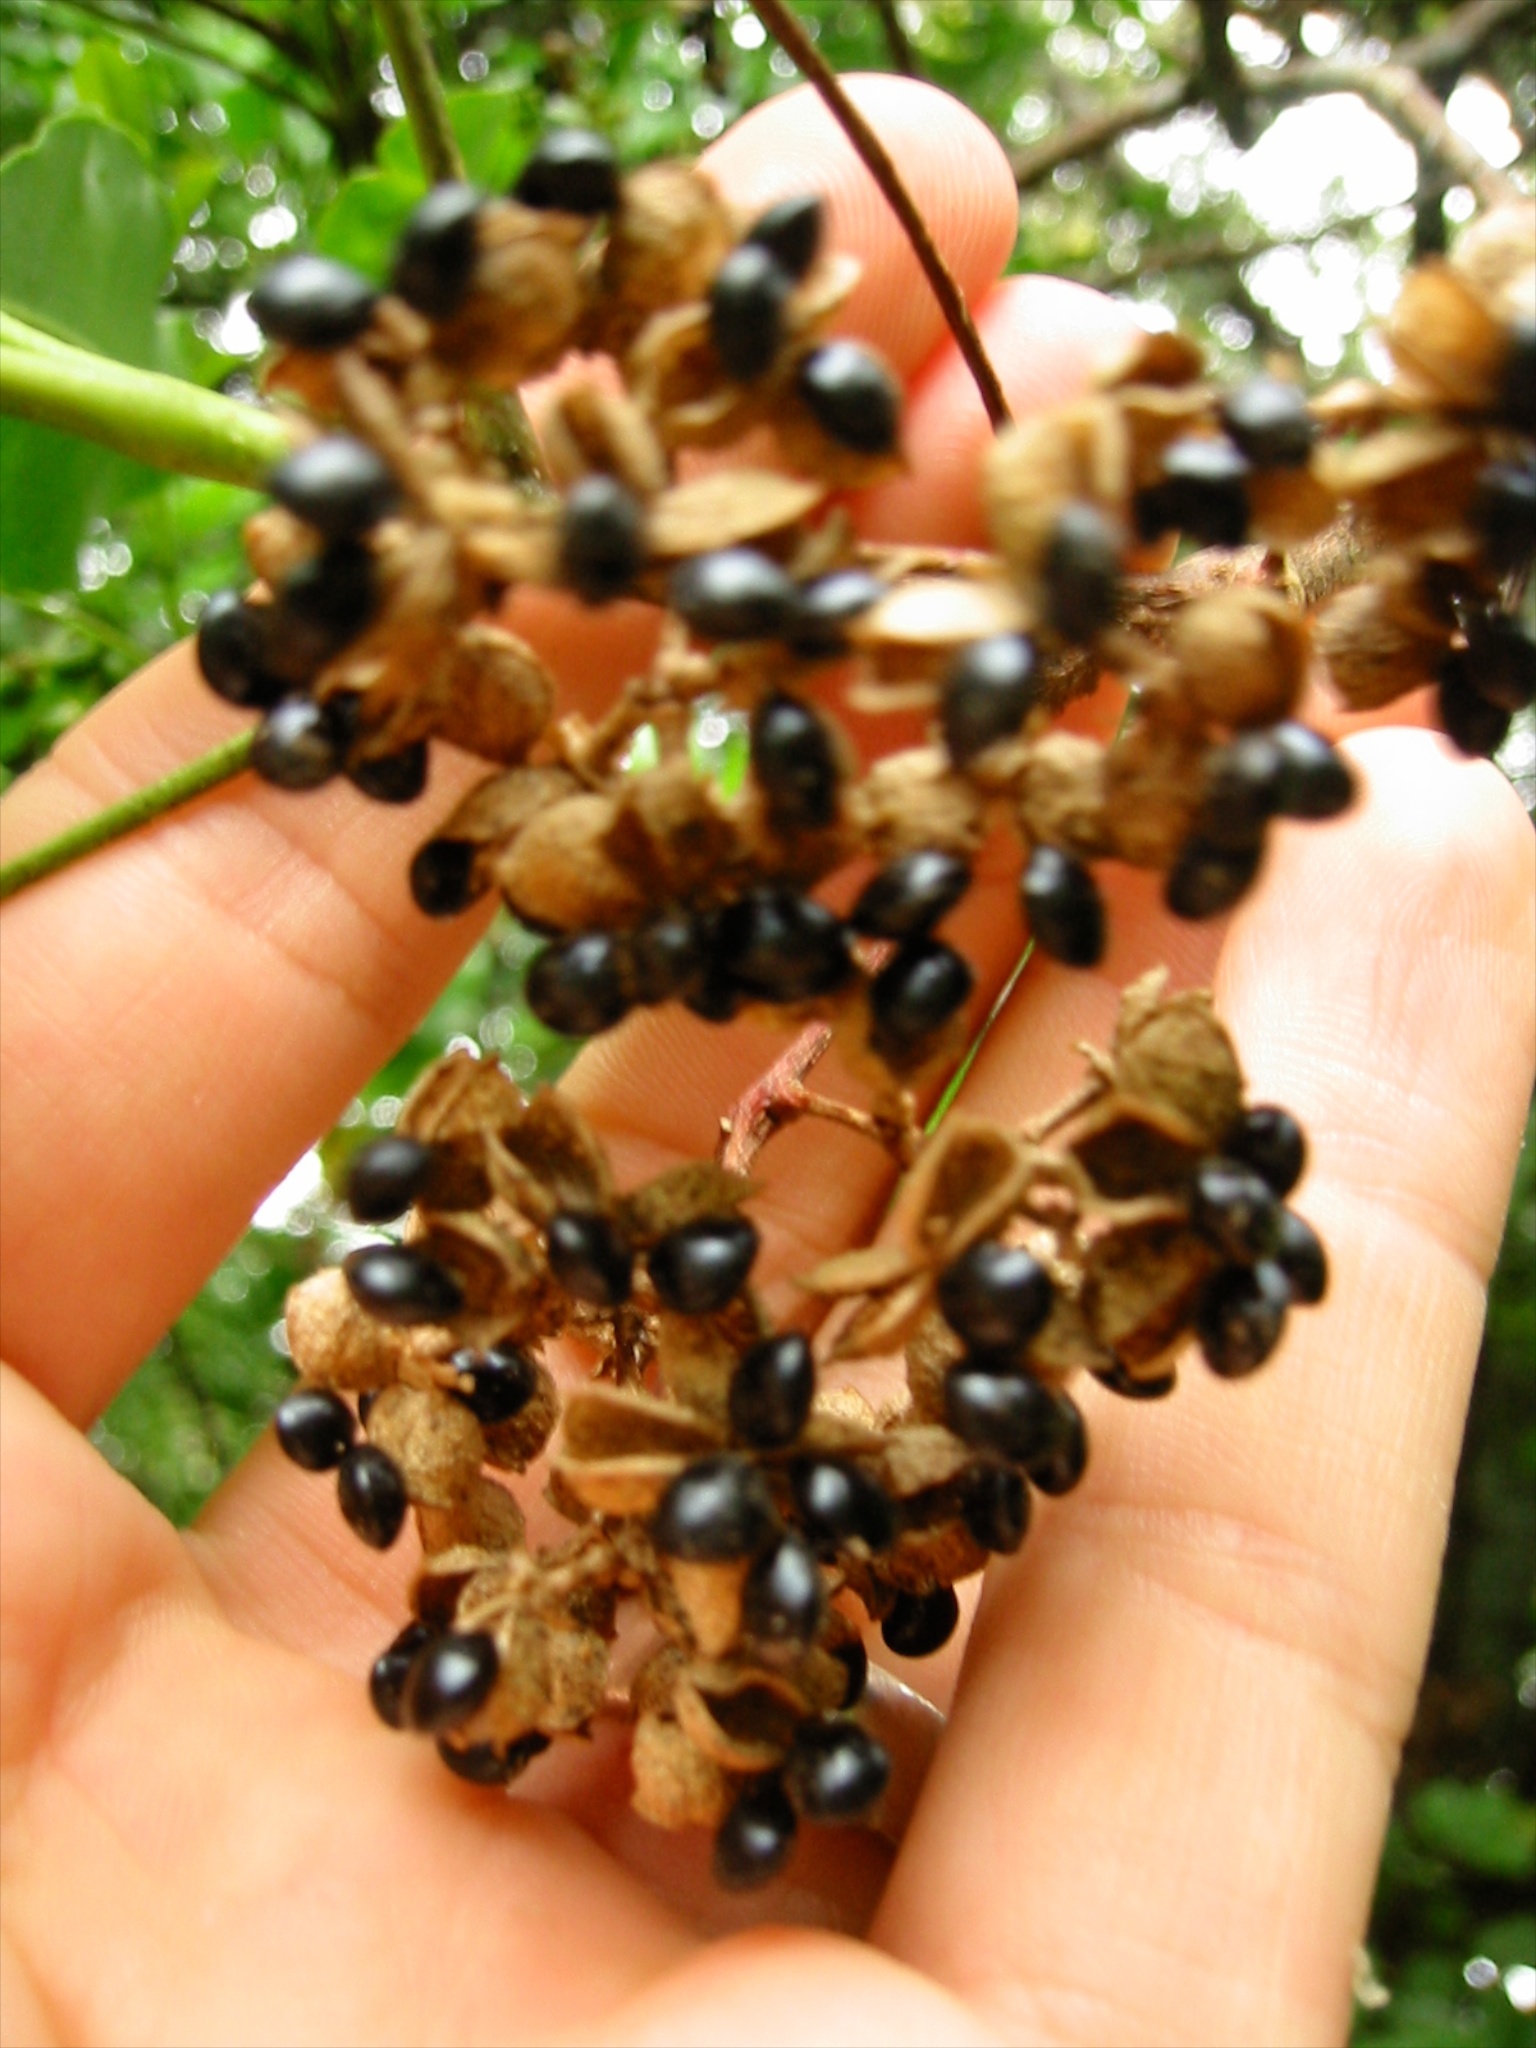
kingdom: Plantae
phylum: Tracheophyta
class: Magnoliopsida
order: Sapindales
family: Rutaceae
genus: Melicope
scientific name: Melicope ternata
